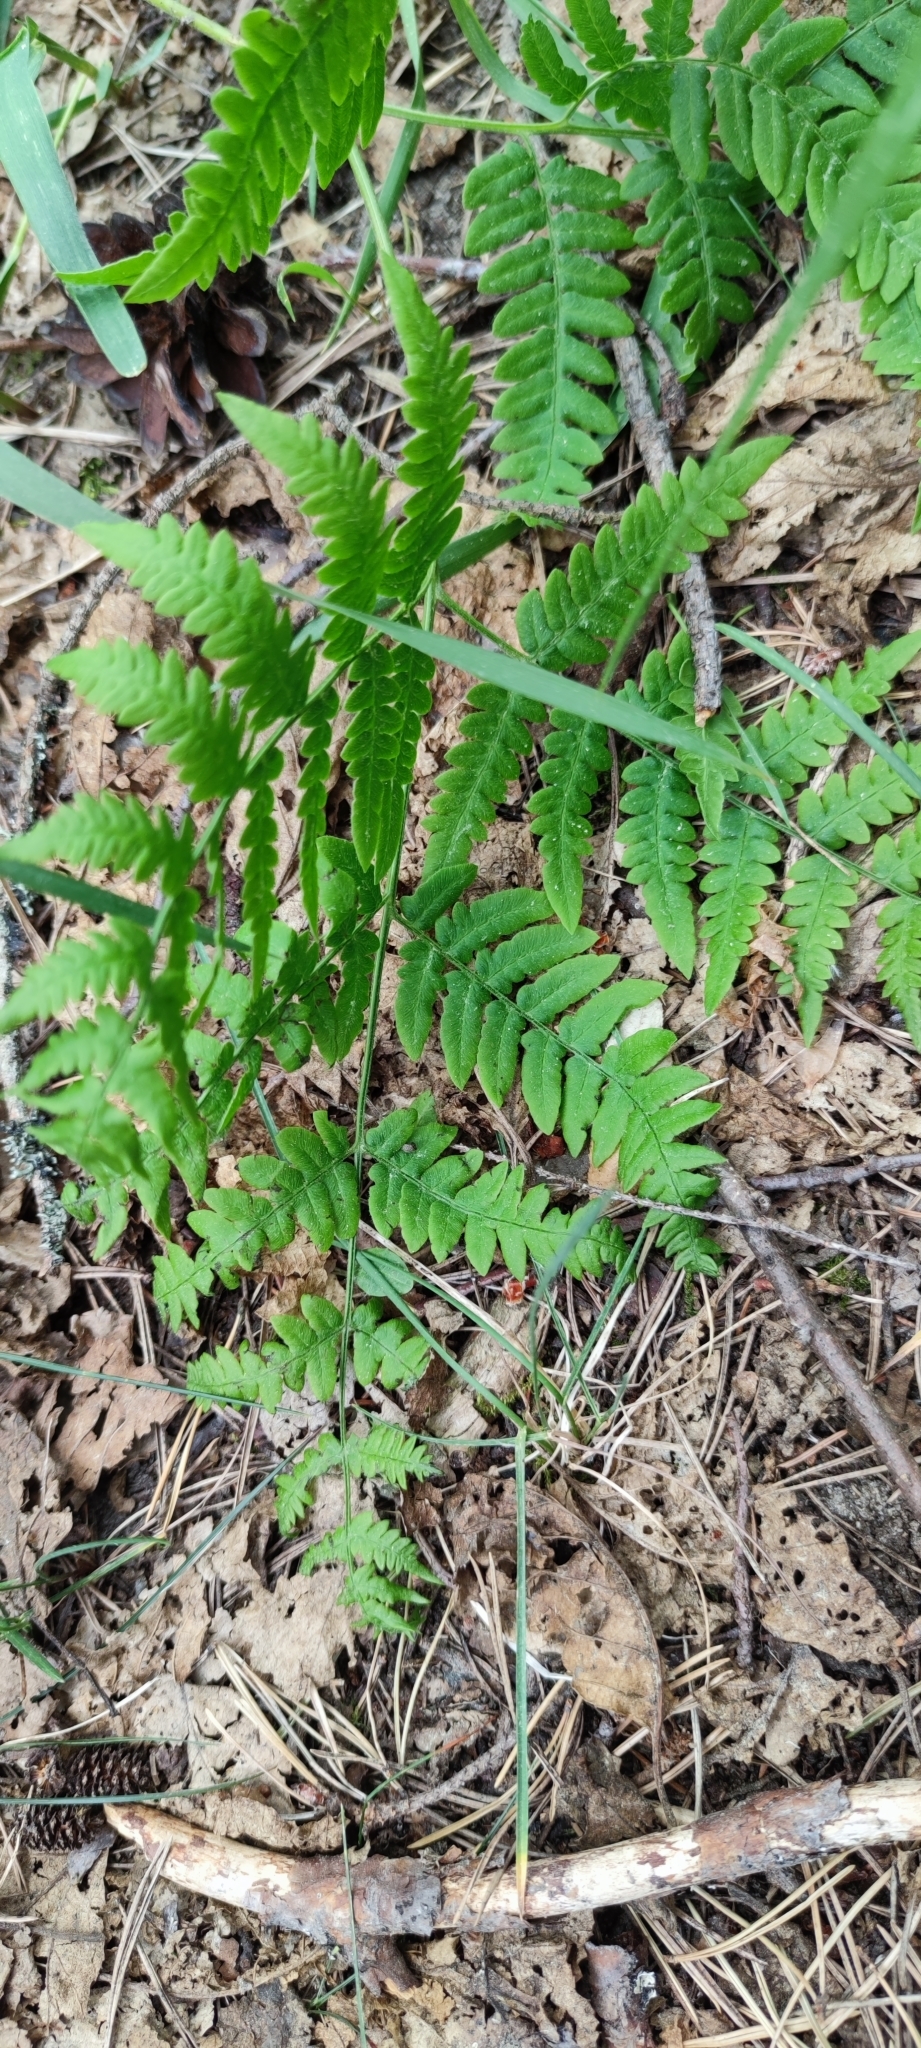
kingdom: Plantae
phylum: Tracheophyta
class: Polypodiopsida
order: Polypodiales
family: Dennstaedtiaceae
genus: Pteridium
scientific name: Pteridium aquilinum
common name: Bracken
